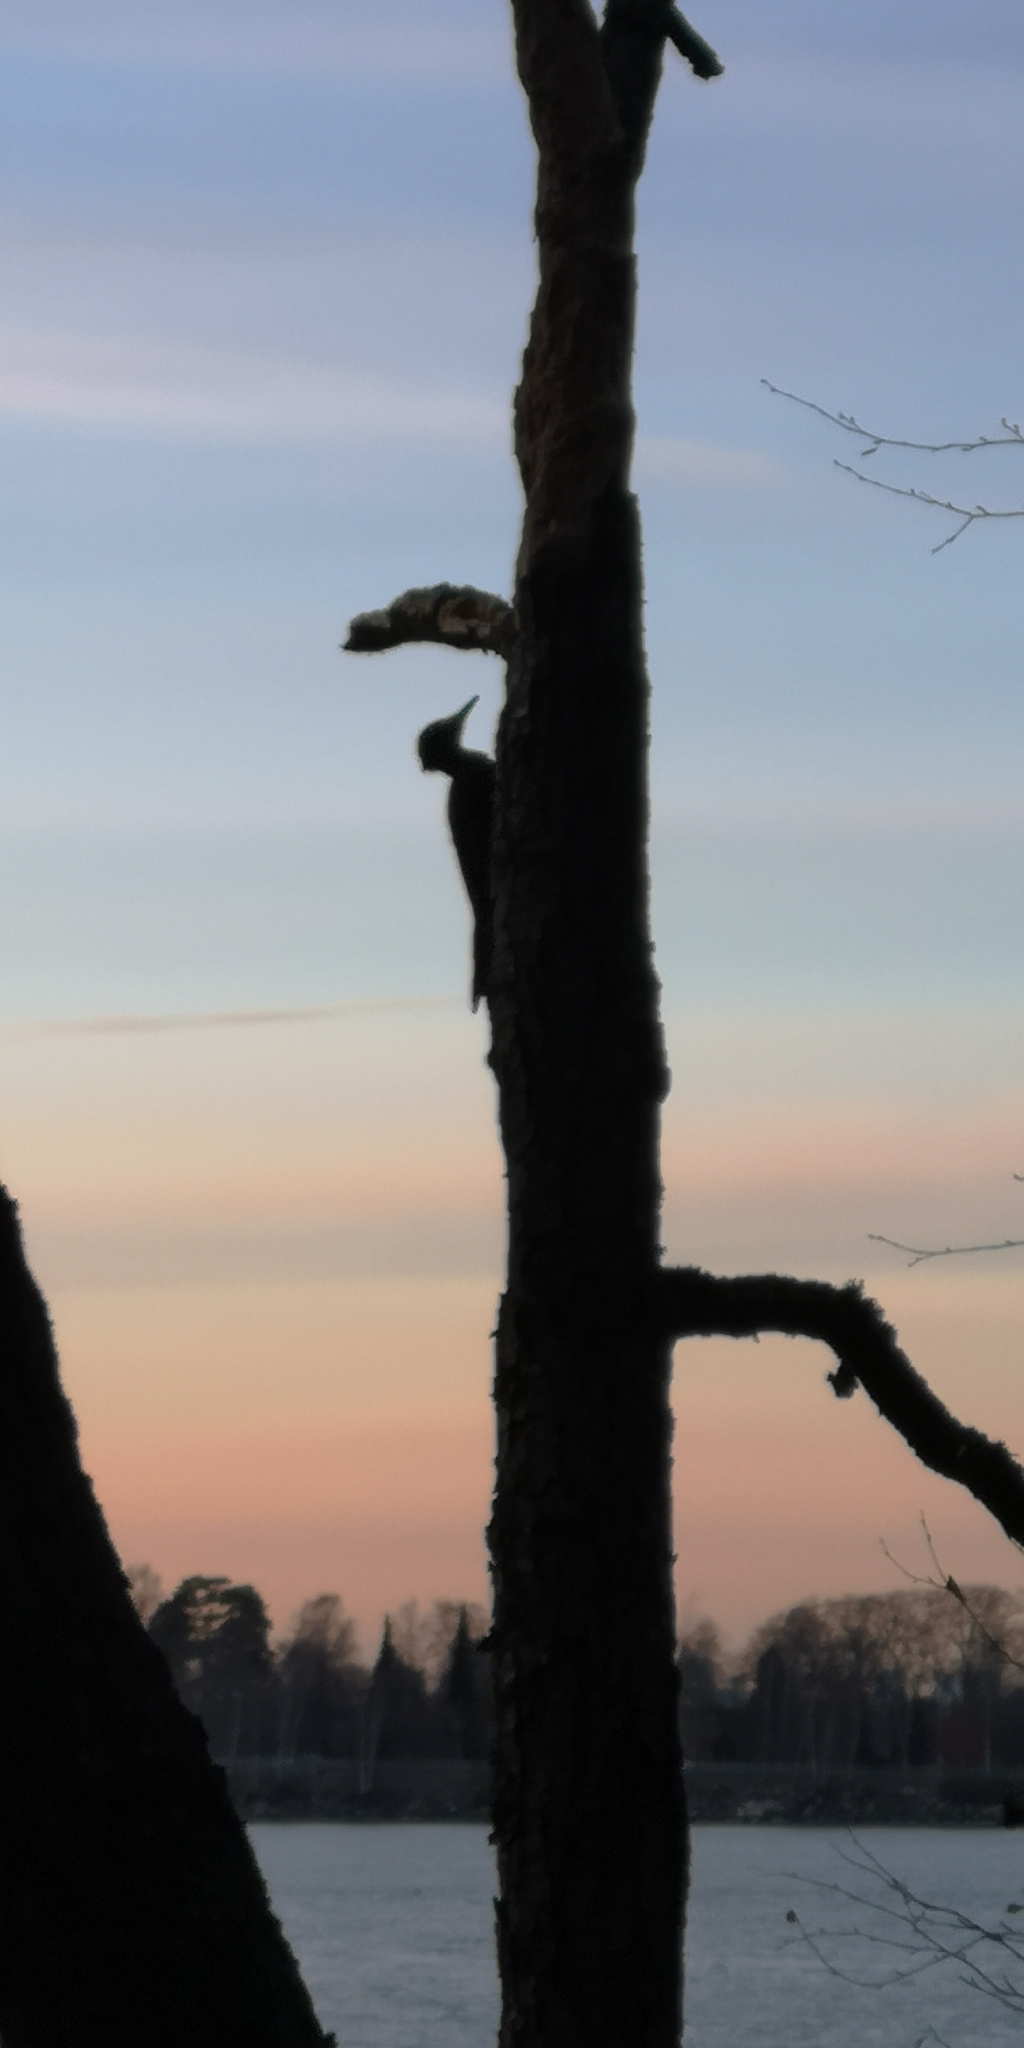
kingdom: Animalia
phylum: Chordata
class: Aves
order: Piciformes
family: Picidae
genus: Dryocopus
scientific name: Dryocopus martius
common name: Black woodpecker
